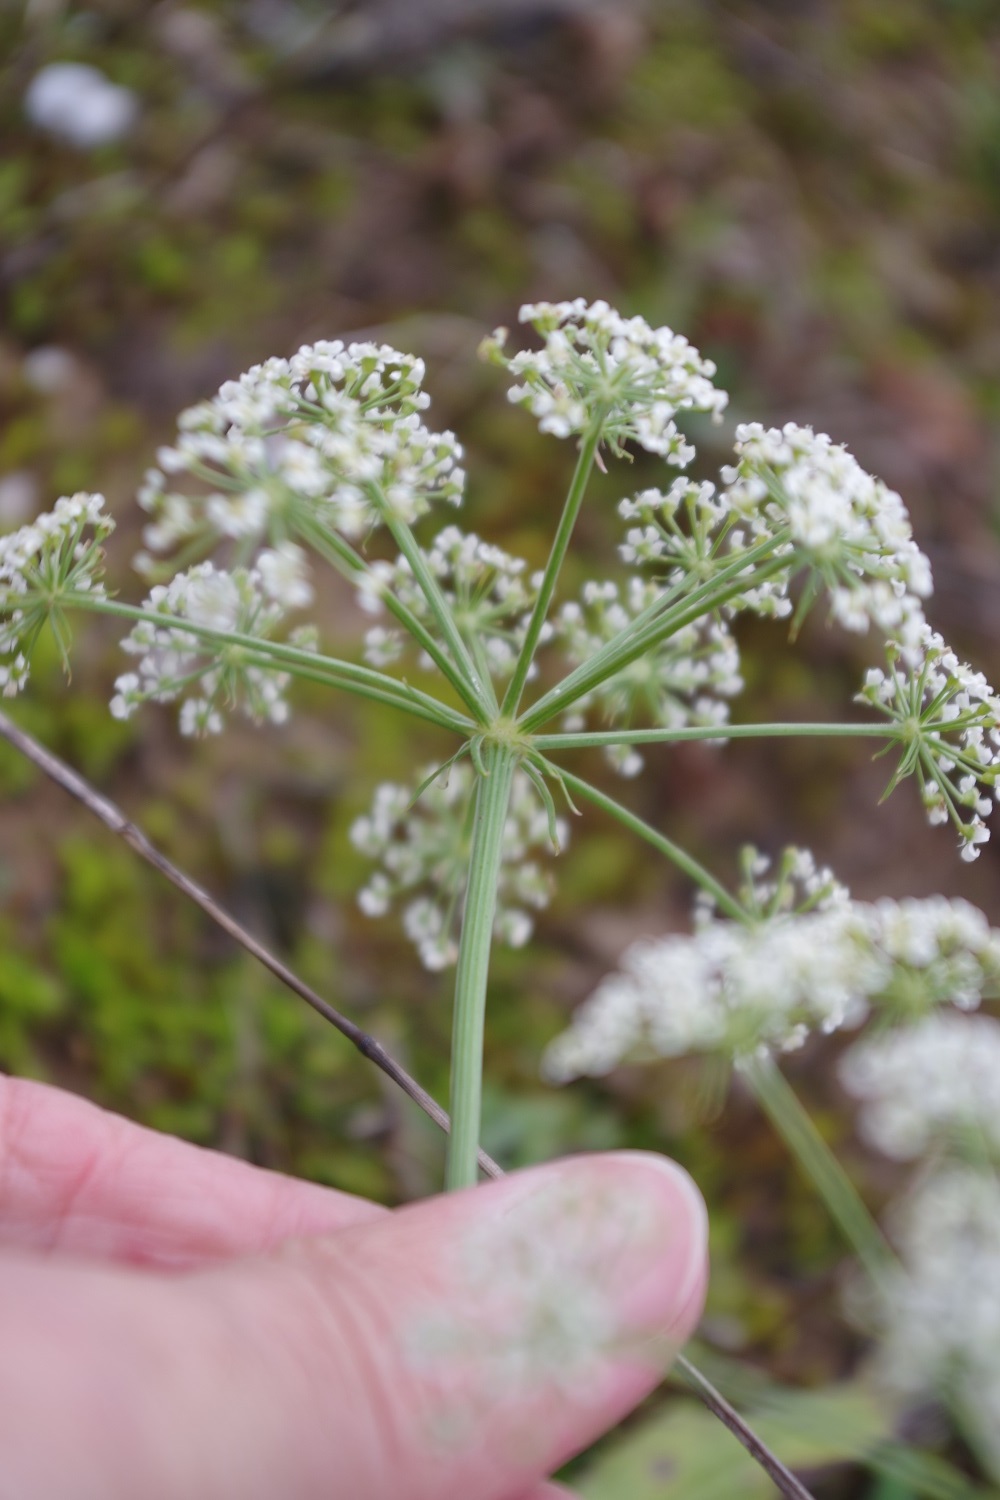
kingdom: Plantae
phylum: Tracheophyta
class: Magnoliopsida
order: Apiales
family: Apiaceae
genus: Oreoselinum
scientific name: Oreoselinum nigrum
